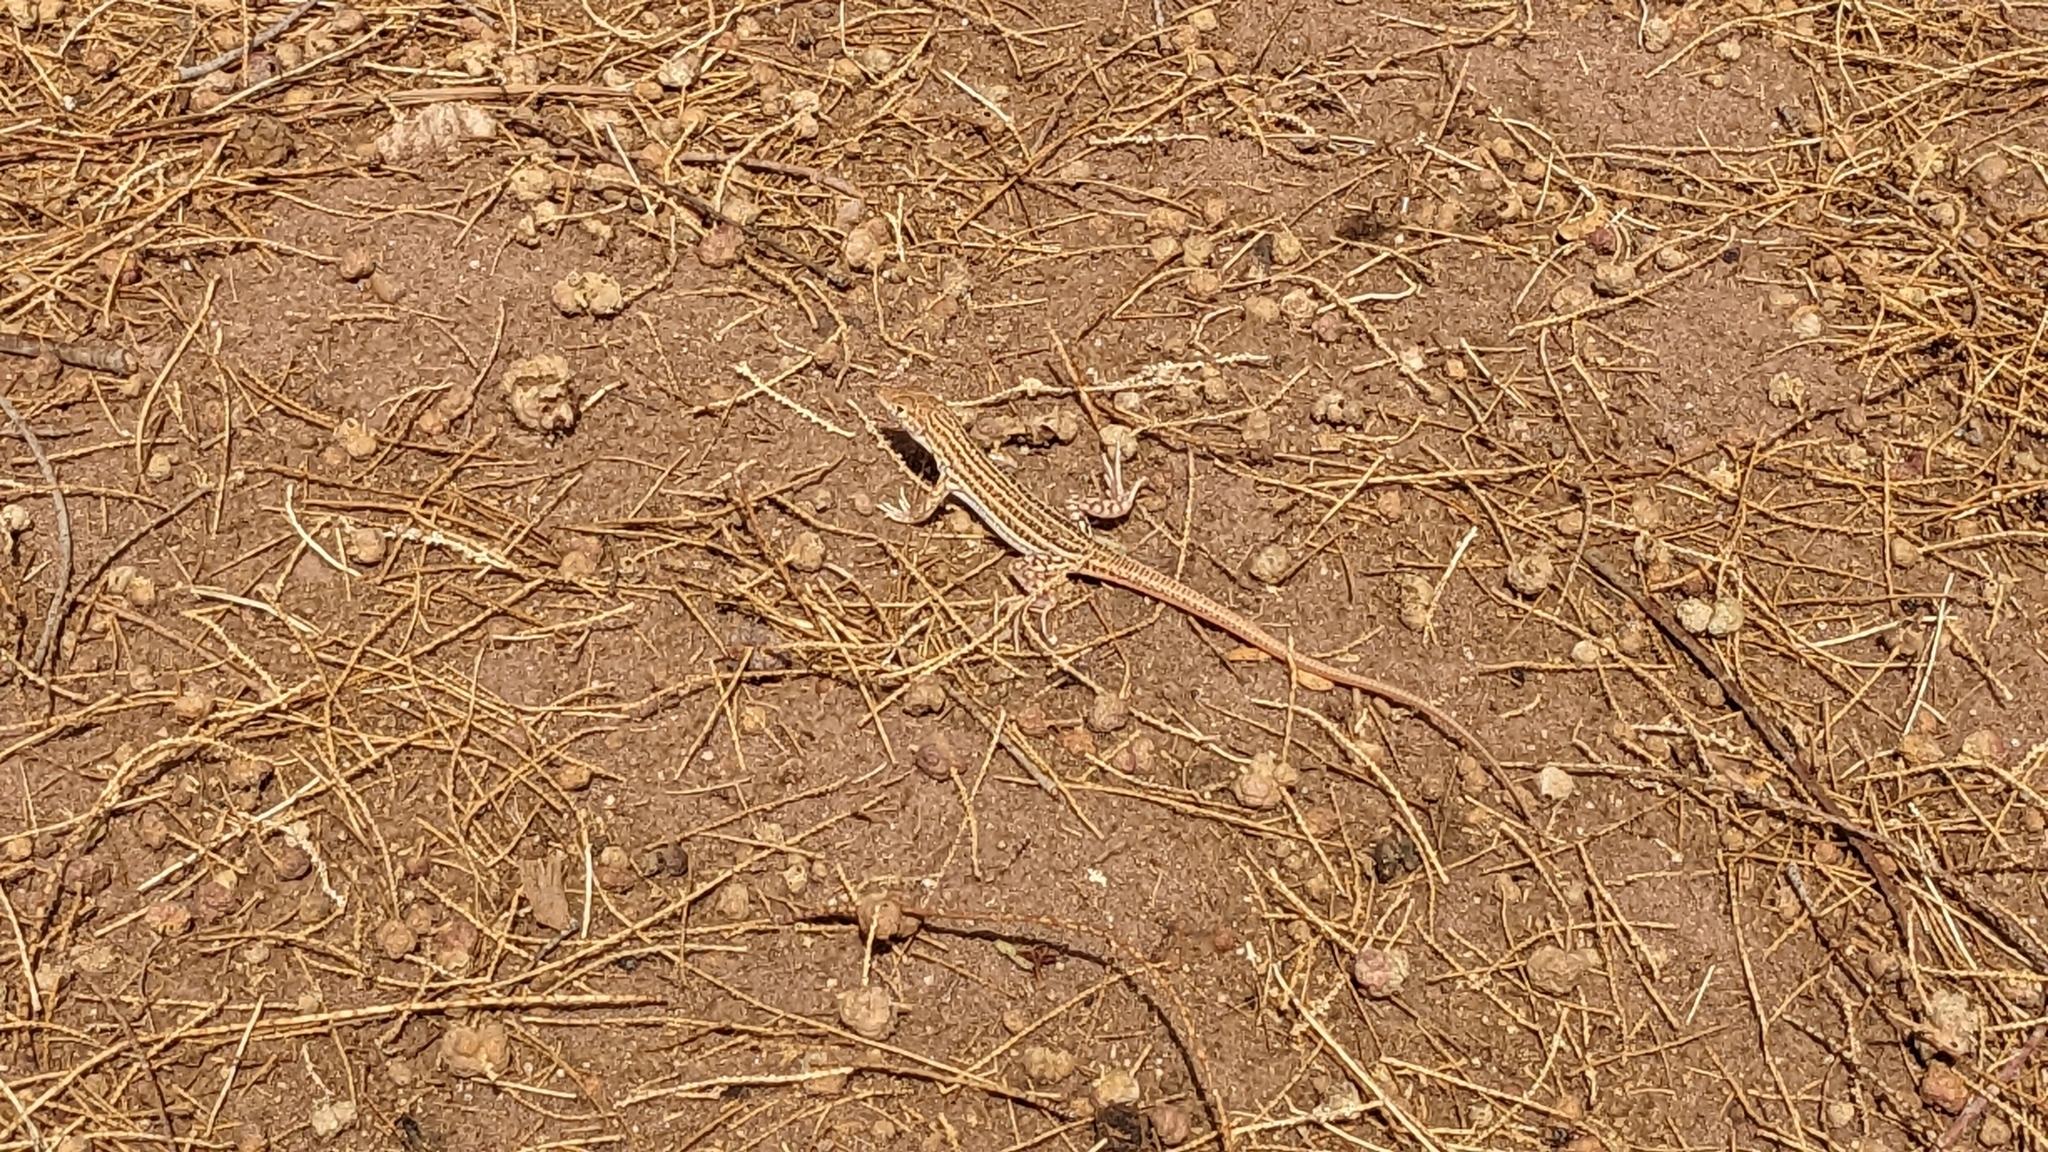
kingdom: Animalia
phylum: Chordata
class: Squamata
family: Lacertidae
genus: Acanthodactylus
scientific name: Acanthodactylus boskianus
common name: Bosc’s fringe-toed lizard
